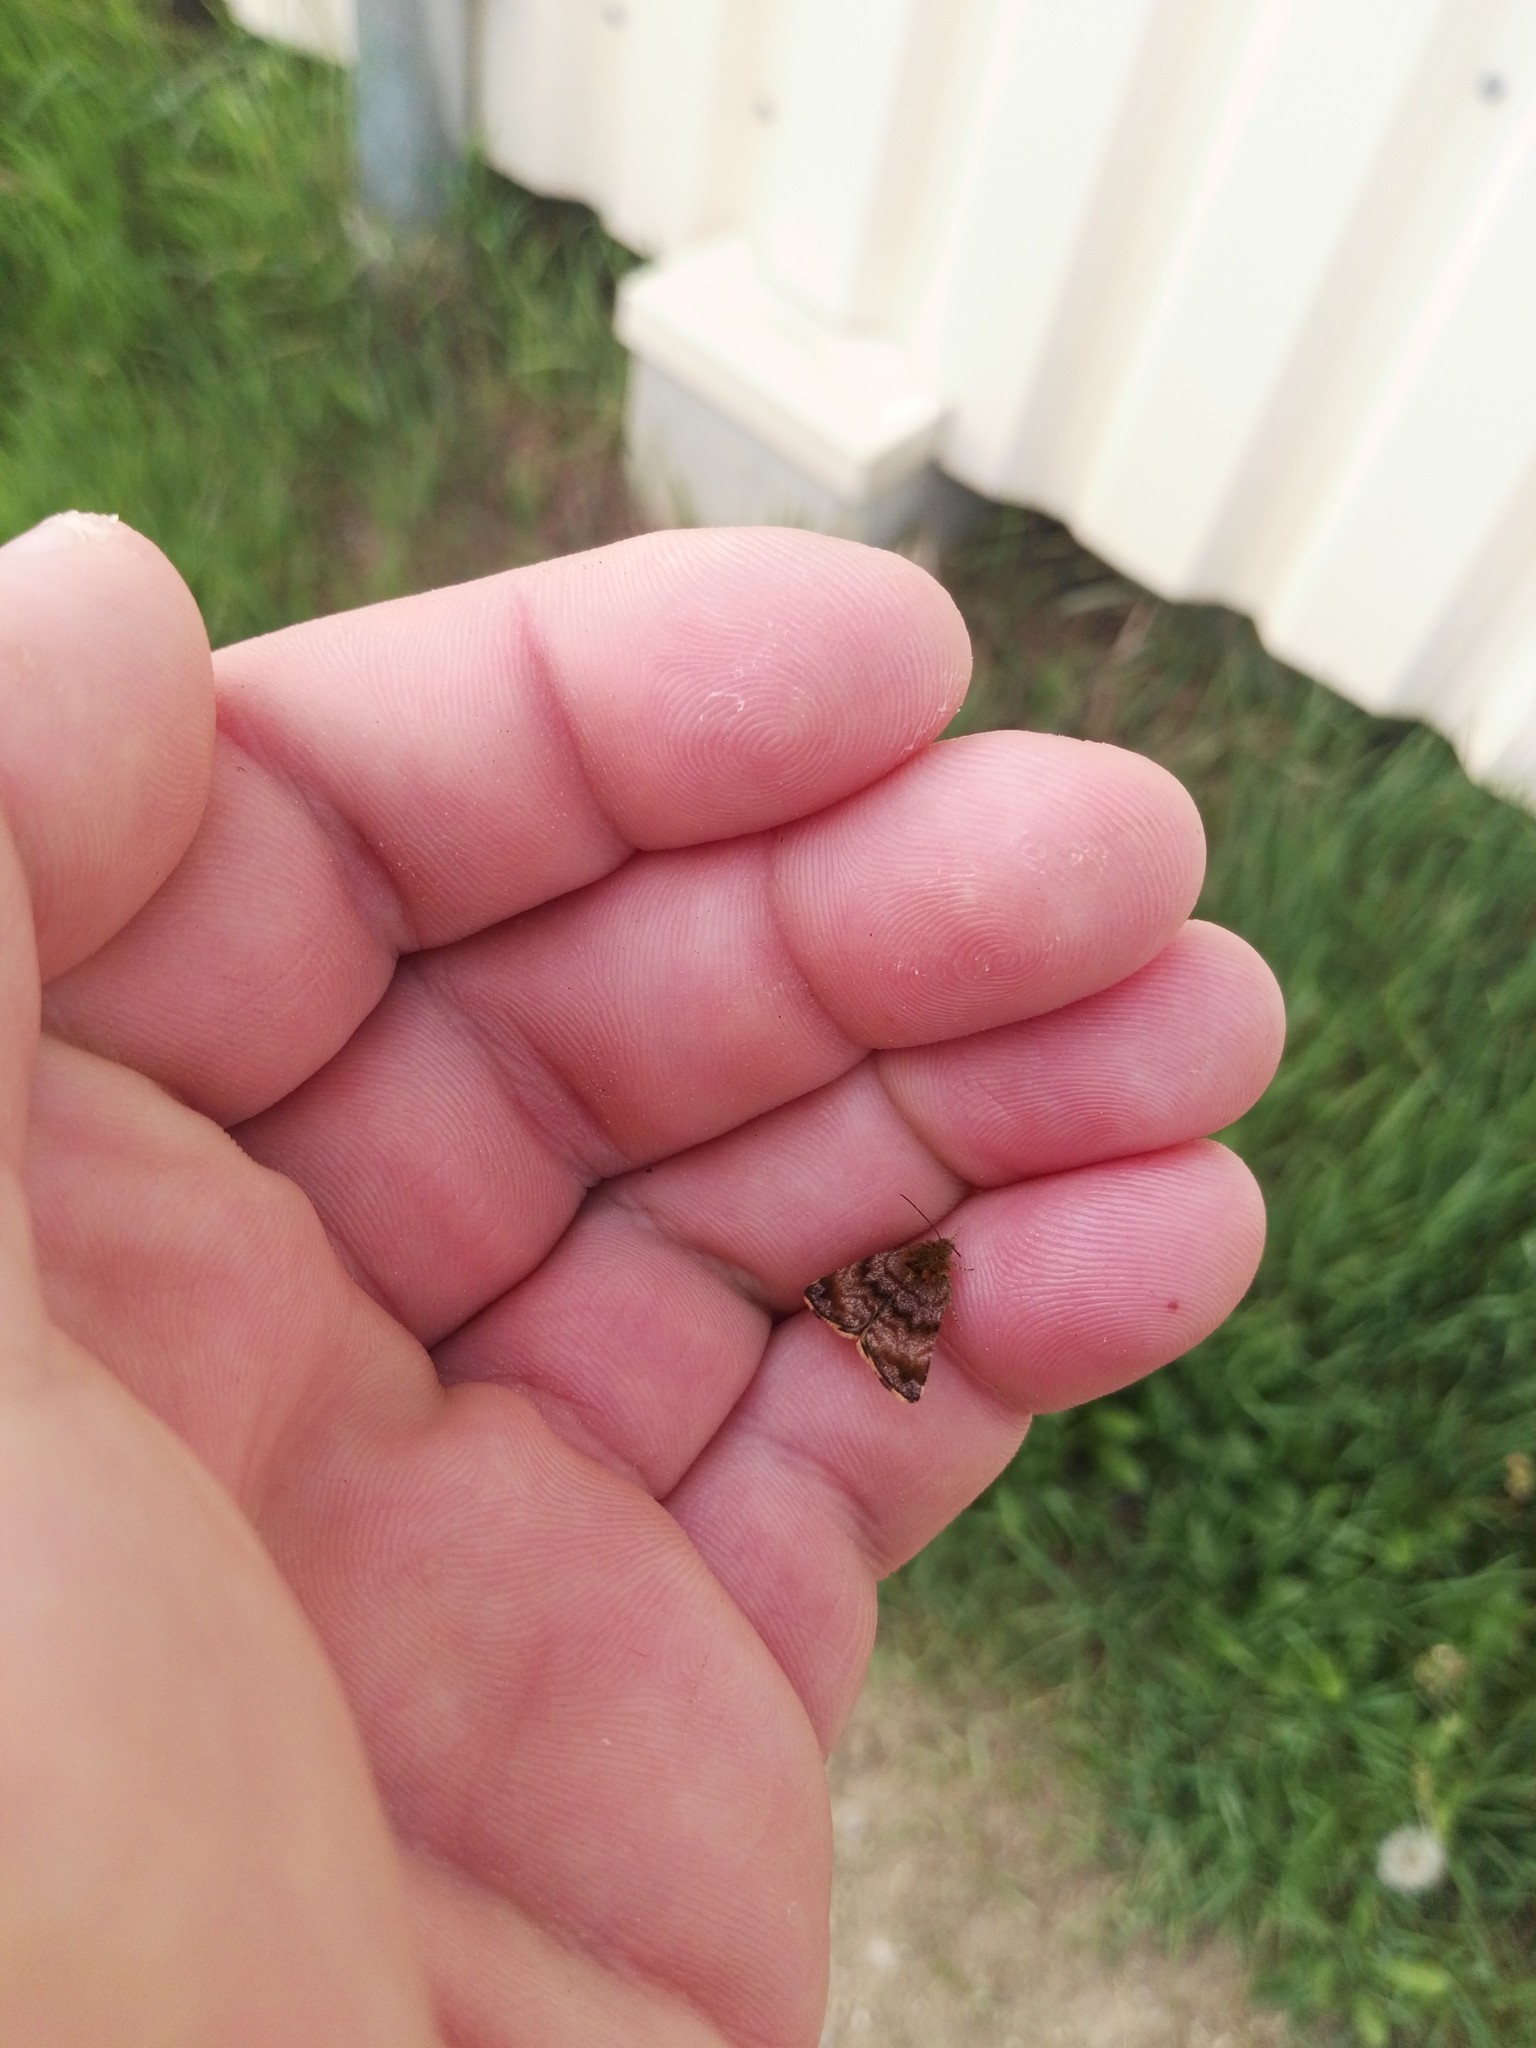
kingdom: Animalia
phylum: Arthropoda
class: Insecta
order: Lepidoptera
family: Noctuidae
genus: Panemeria
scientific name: Panemeria tenebrata
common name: Small yellow underwing
